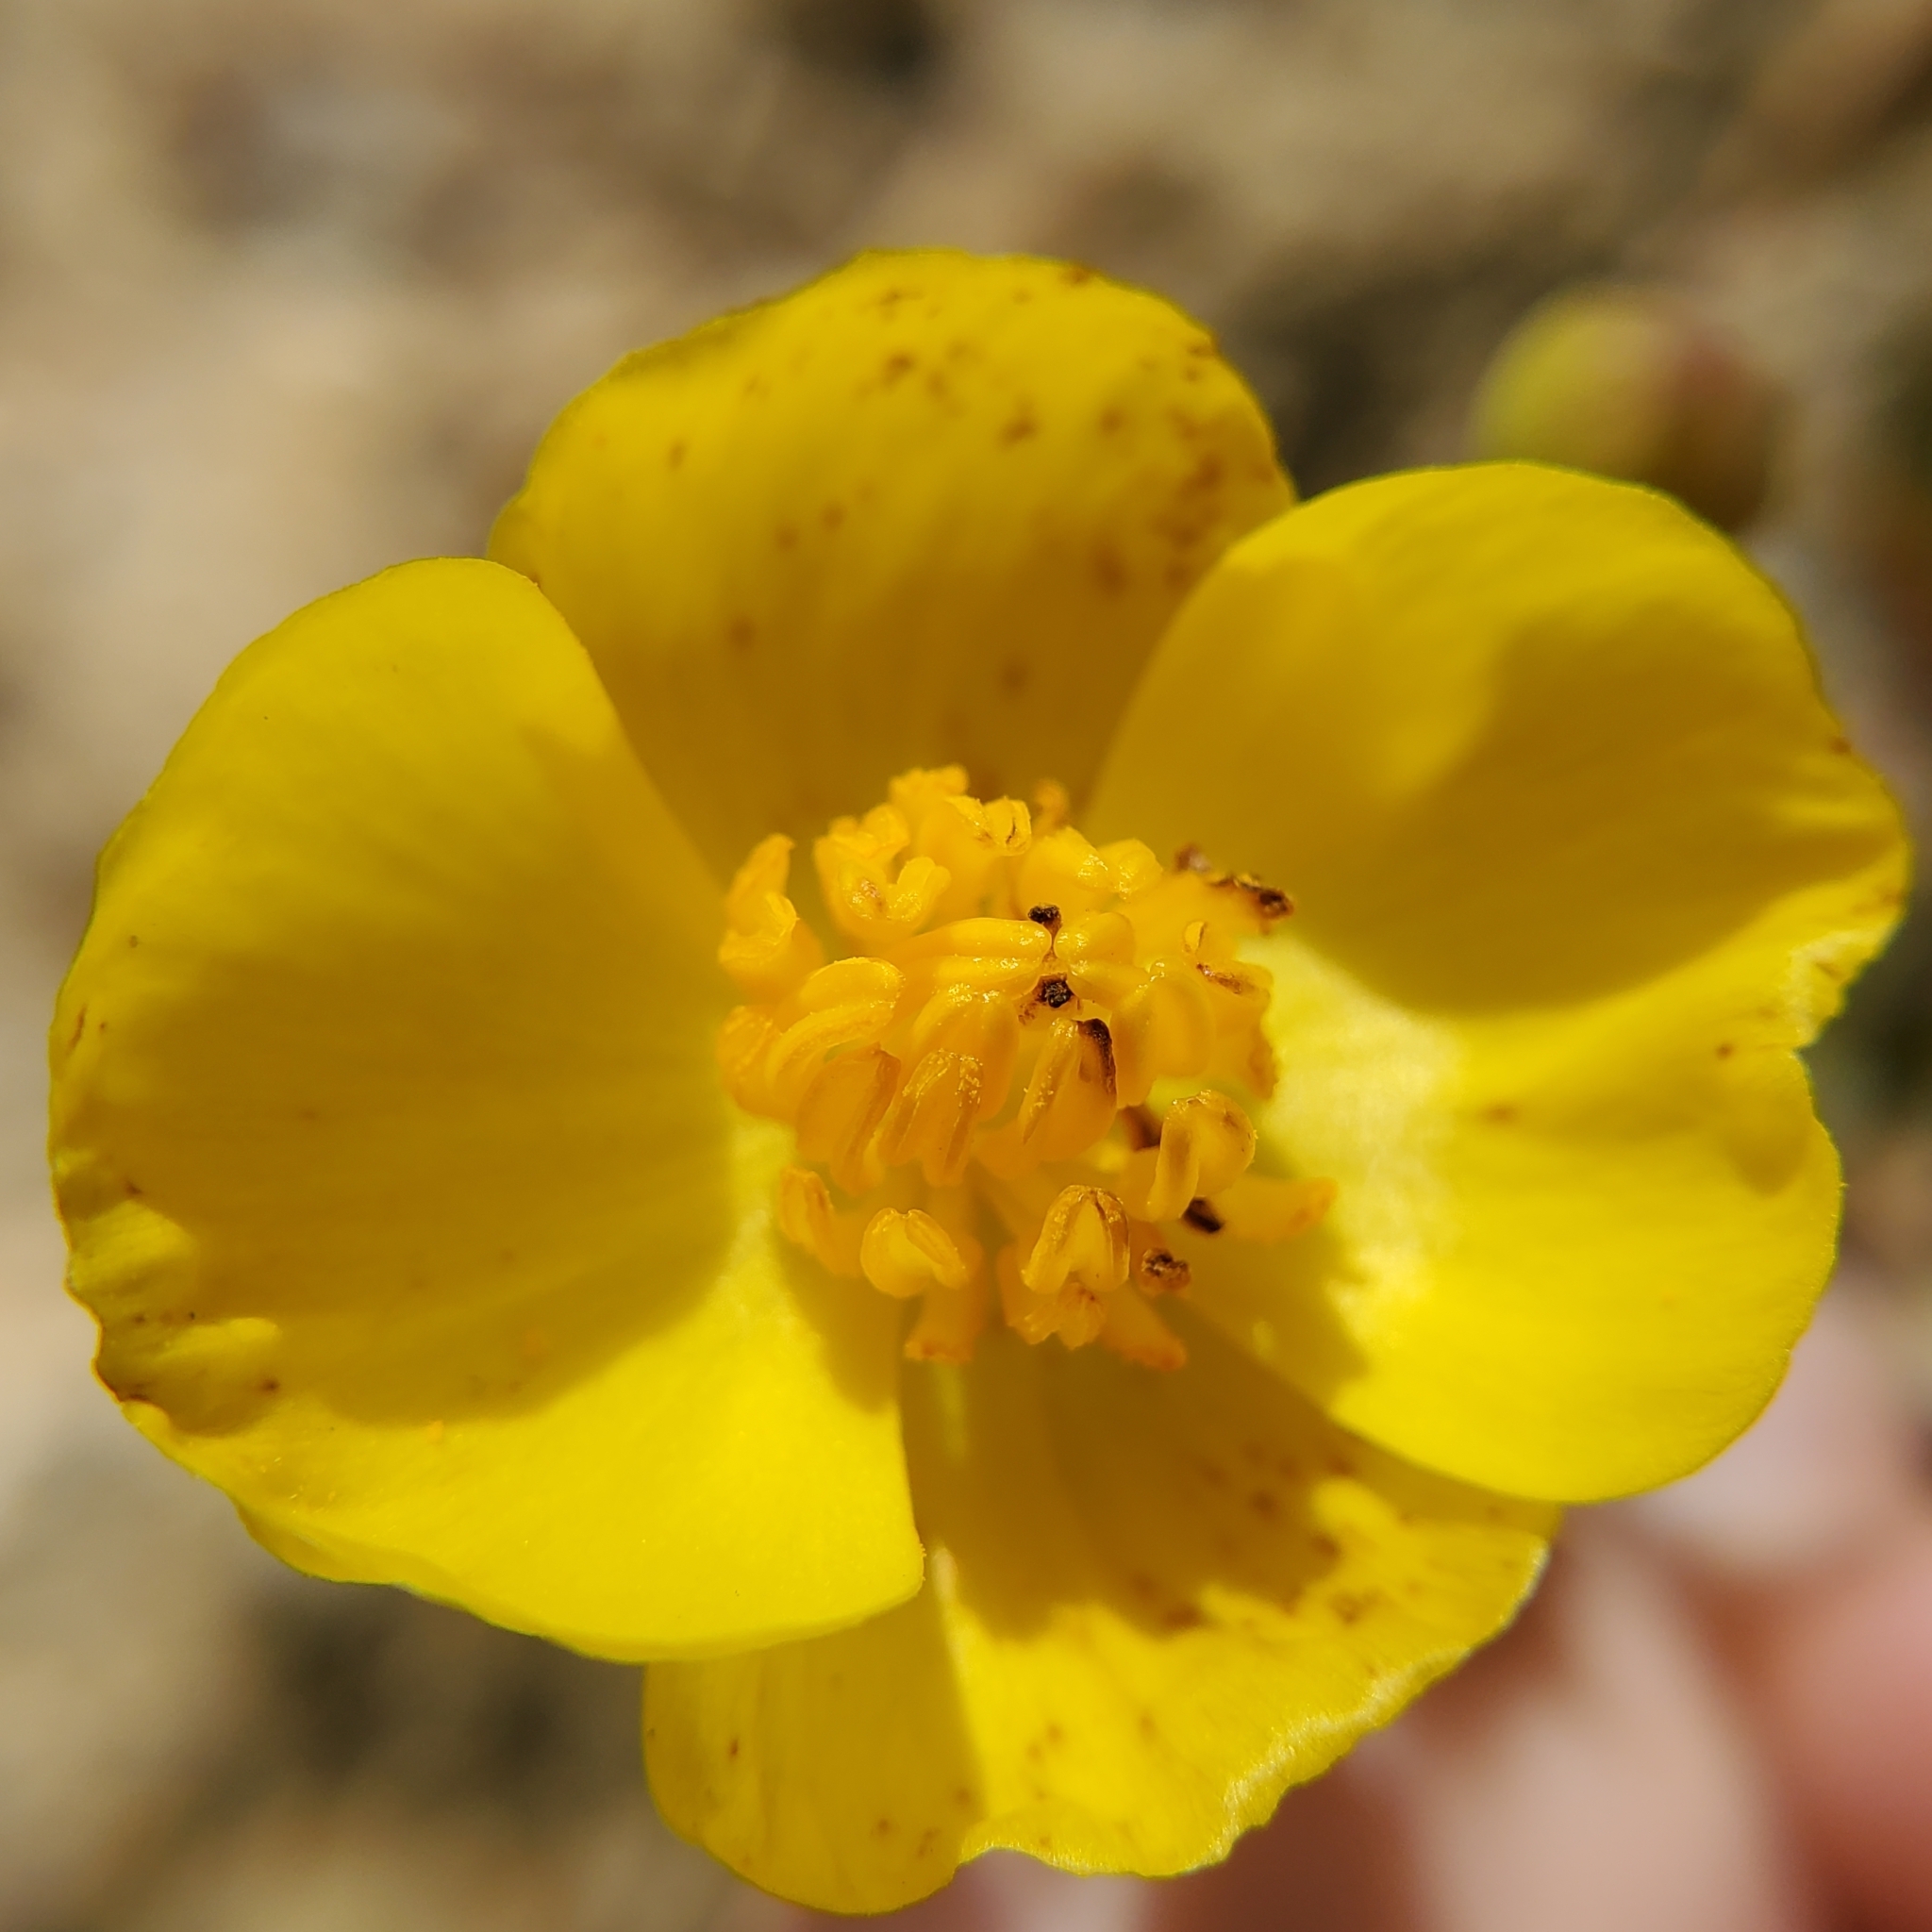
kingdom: Plantae
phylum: Tracheophyta
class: Magnoliopsida
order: Ranunculales
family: Papaveraceae
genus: Dendromecon
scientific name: Dendromecon rigida
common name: Tree poppy
